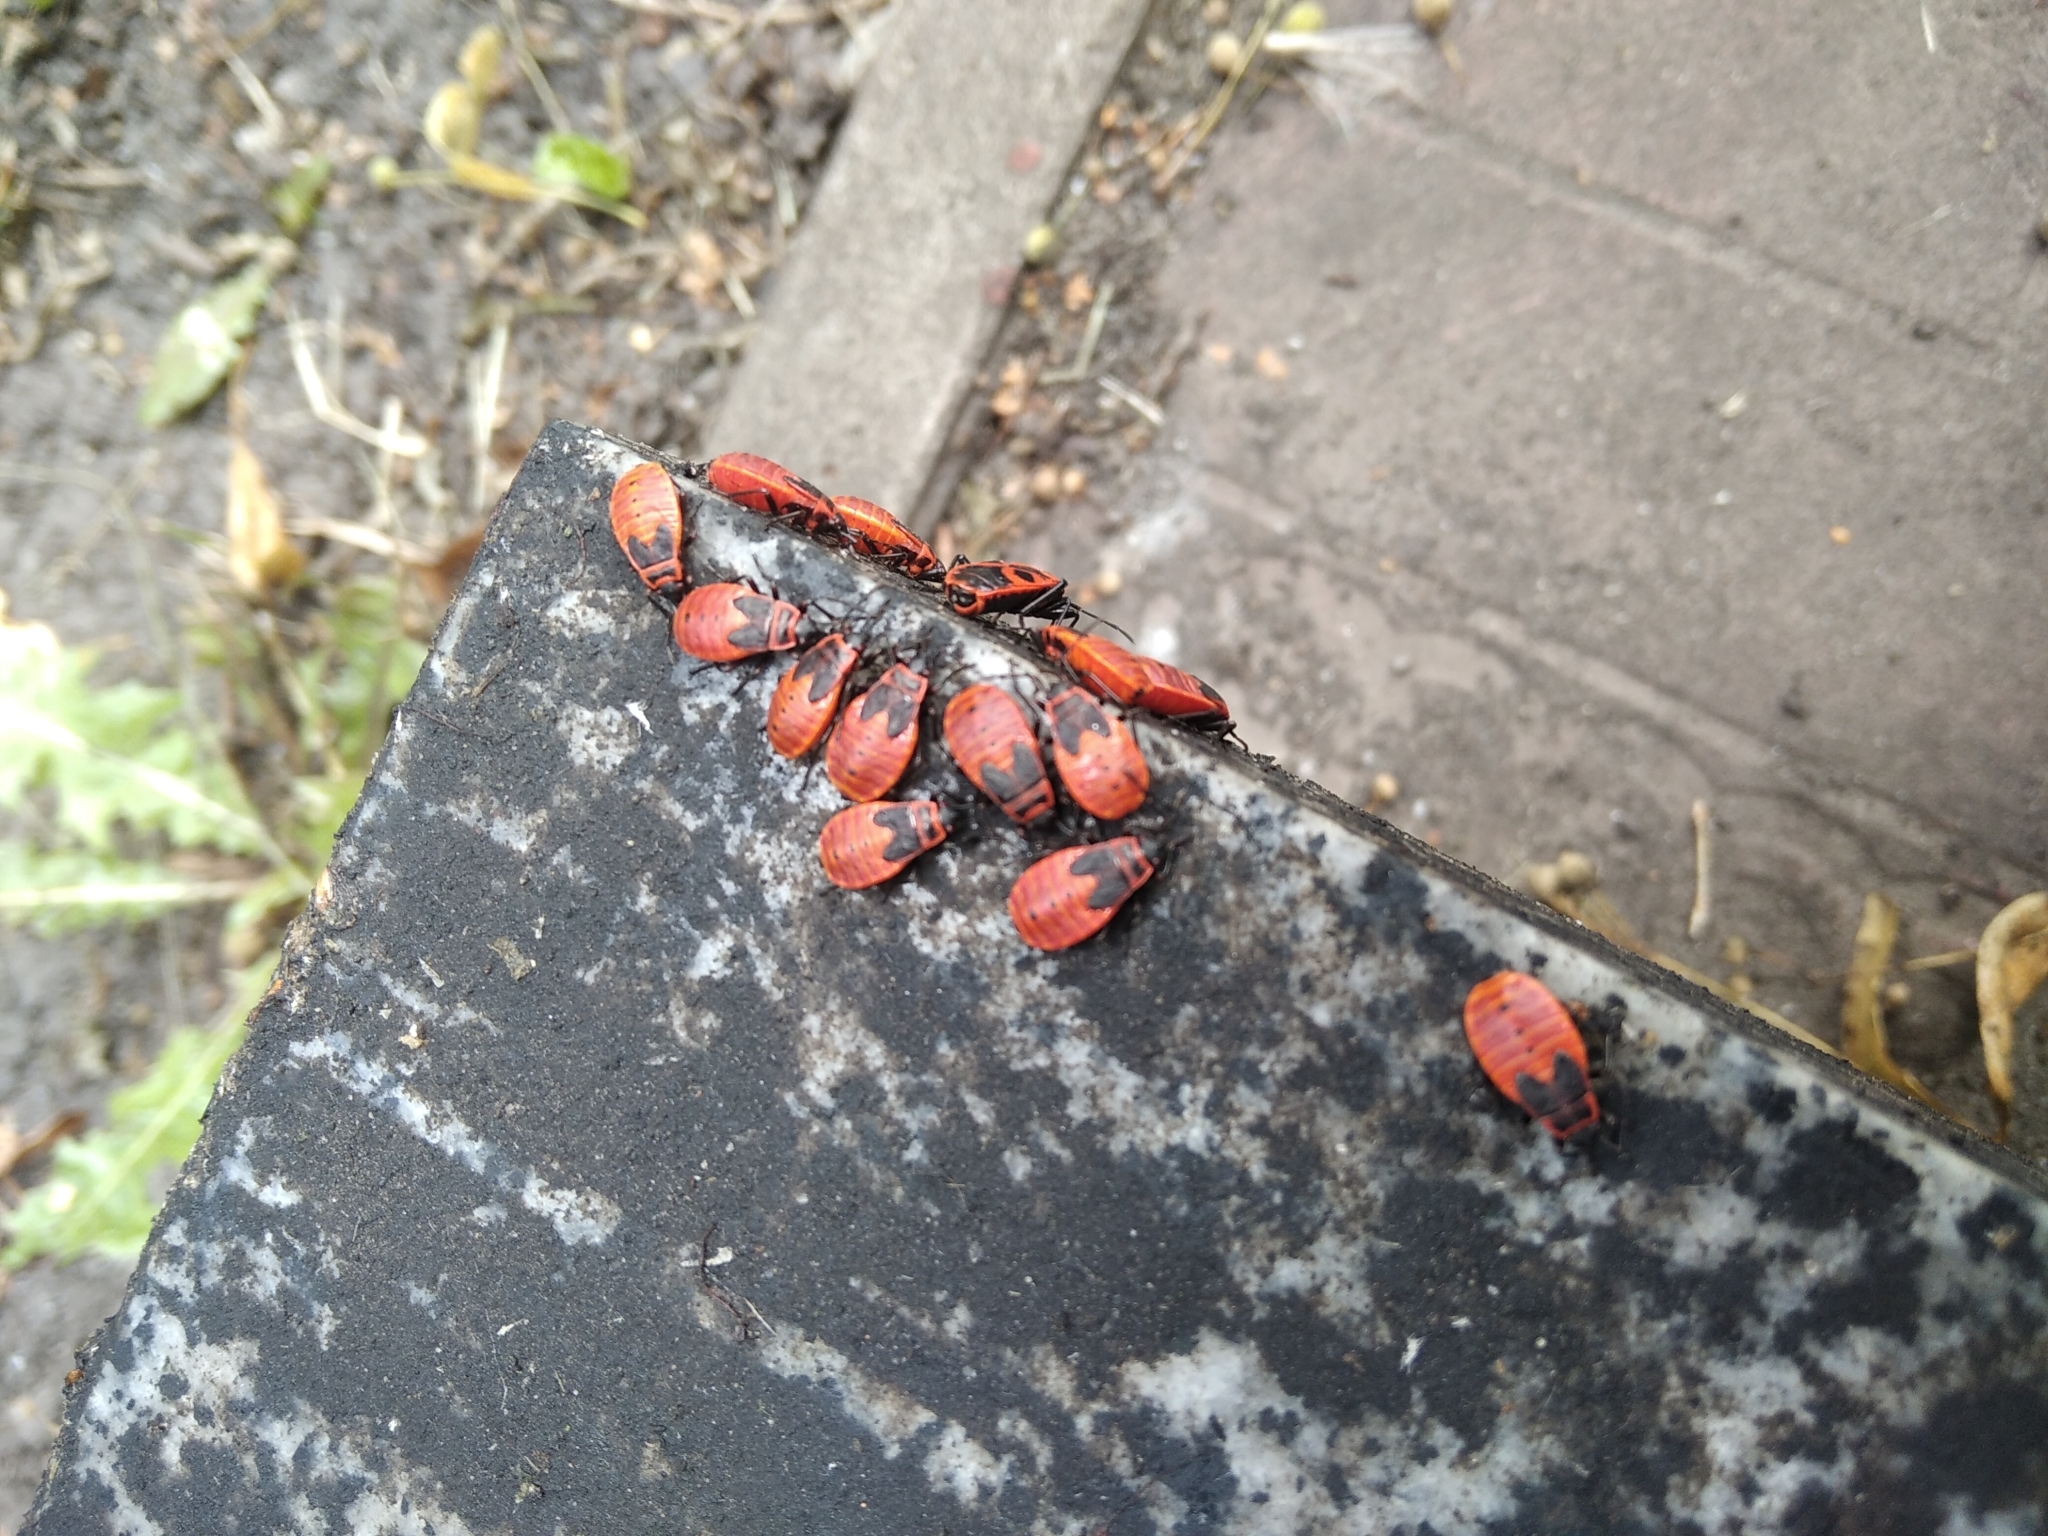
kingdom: Animalia
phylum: Arthropoda
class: Insecta
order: Hemiptera
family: Pyrrhocoridae
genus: Pyrrhocoris
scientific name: Pyrrhocoris apterus
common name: Firebug
